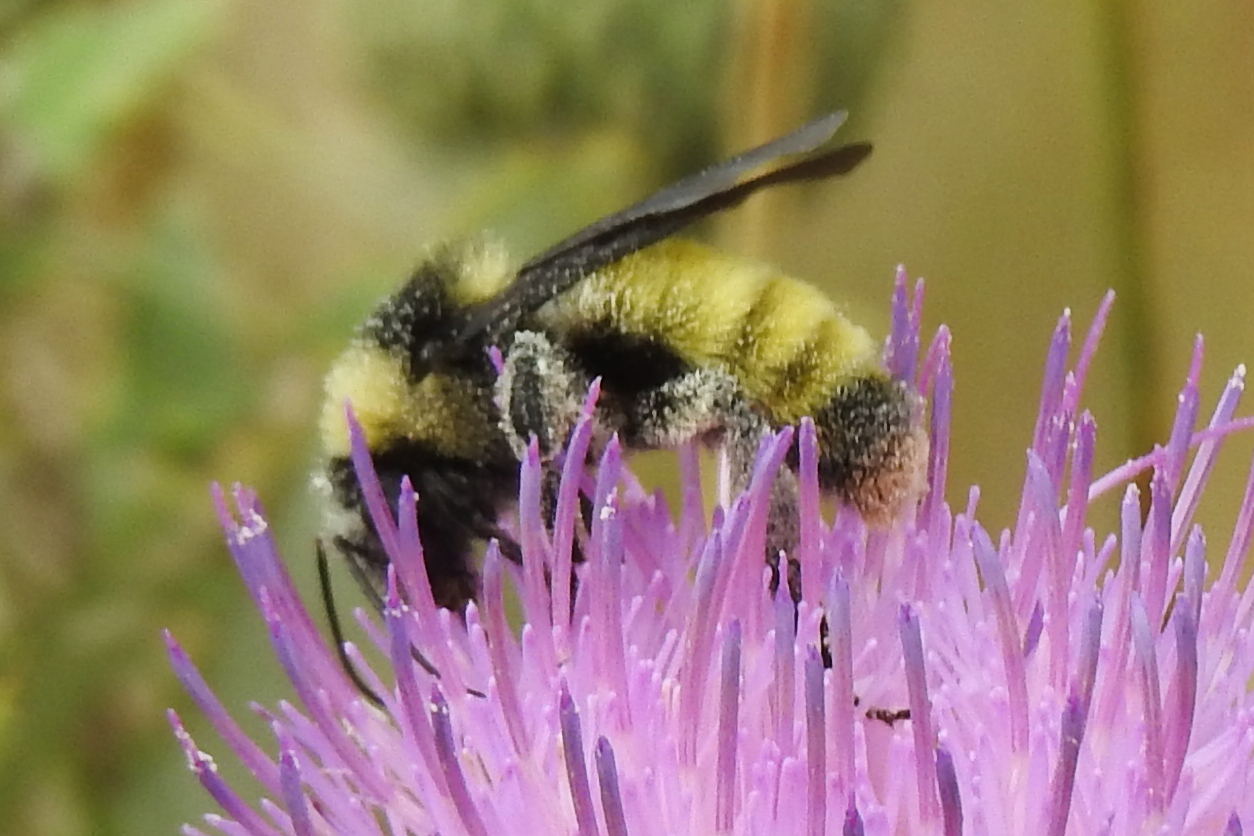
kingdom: Animalia
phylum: Arthropoda
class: Insecta
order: Hymenoptera
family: Apidae
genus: Bombus
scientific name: Bombus pensylvanicus
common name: Bumble bee
